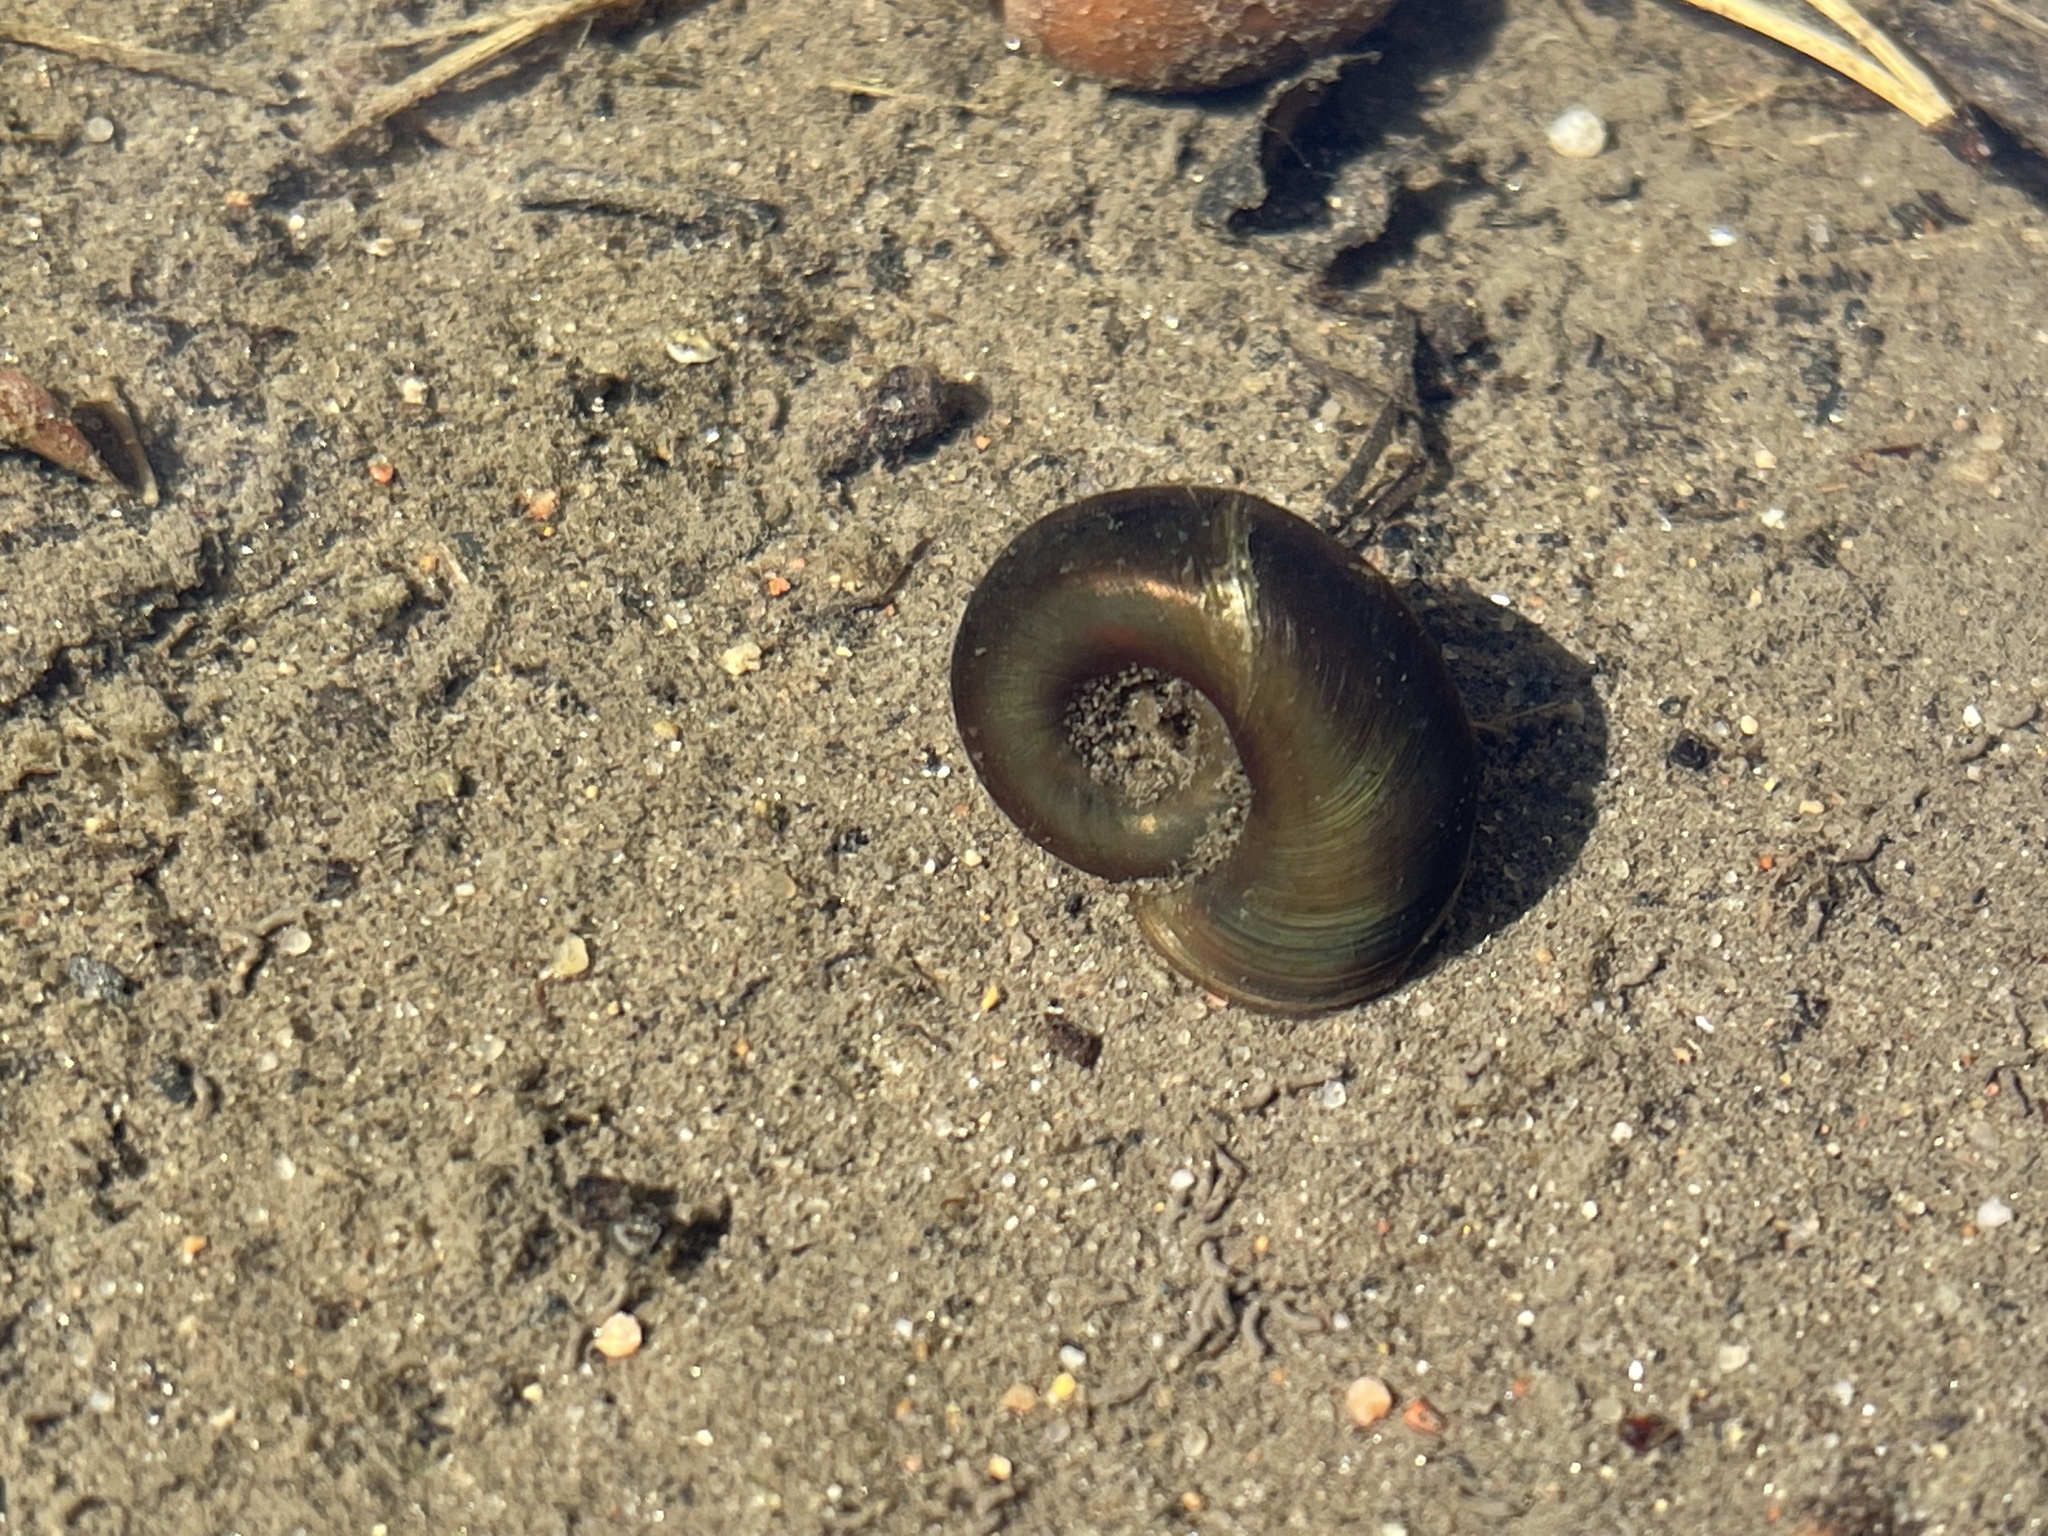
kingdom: Animalia
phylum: Mollusca
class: Gastropoda
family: Planorbidae
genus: Planorbarius
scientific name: Planorbarius corneus
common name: Great ramshorn
